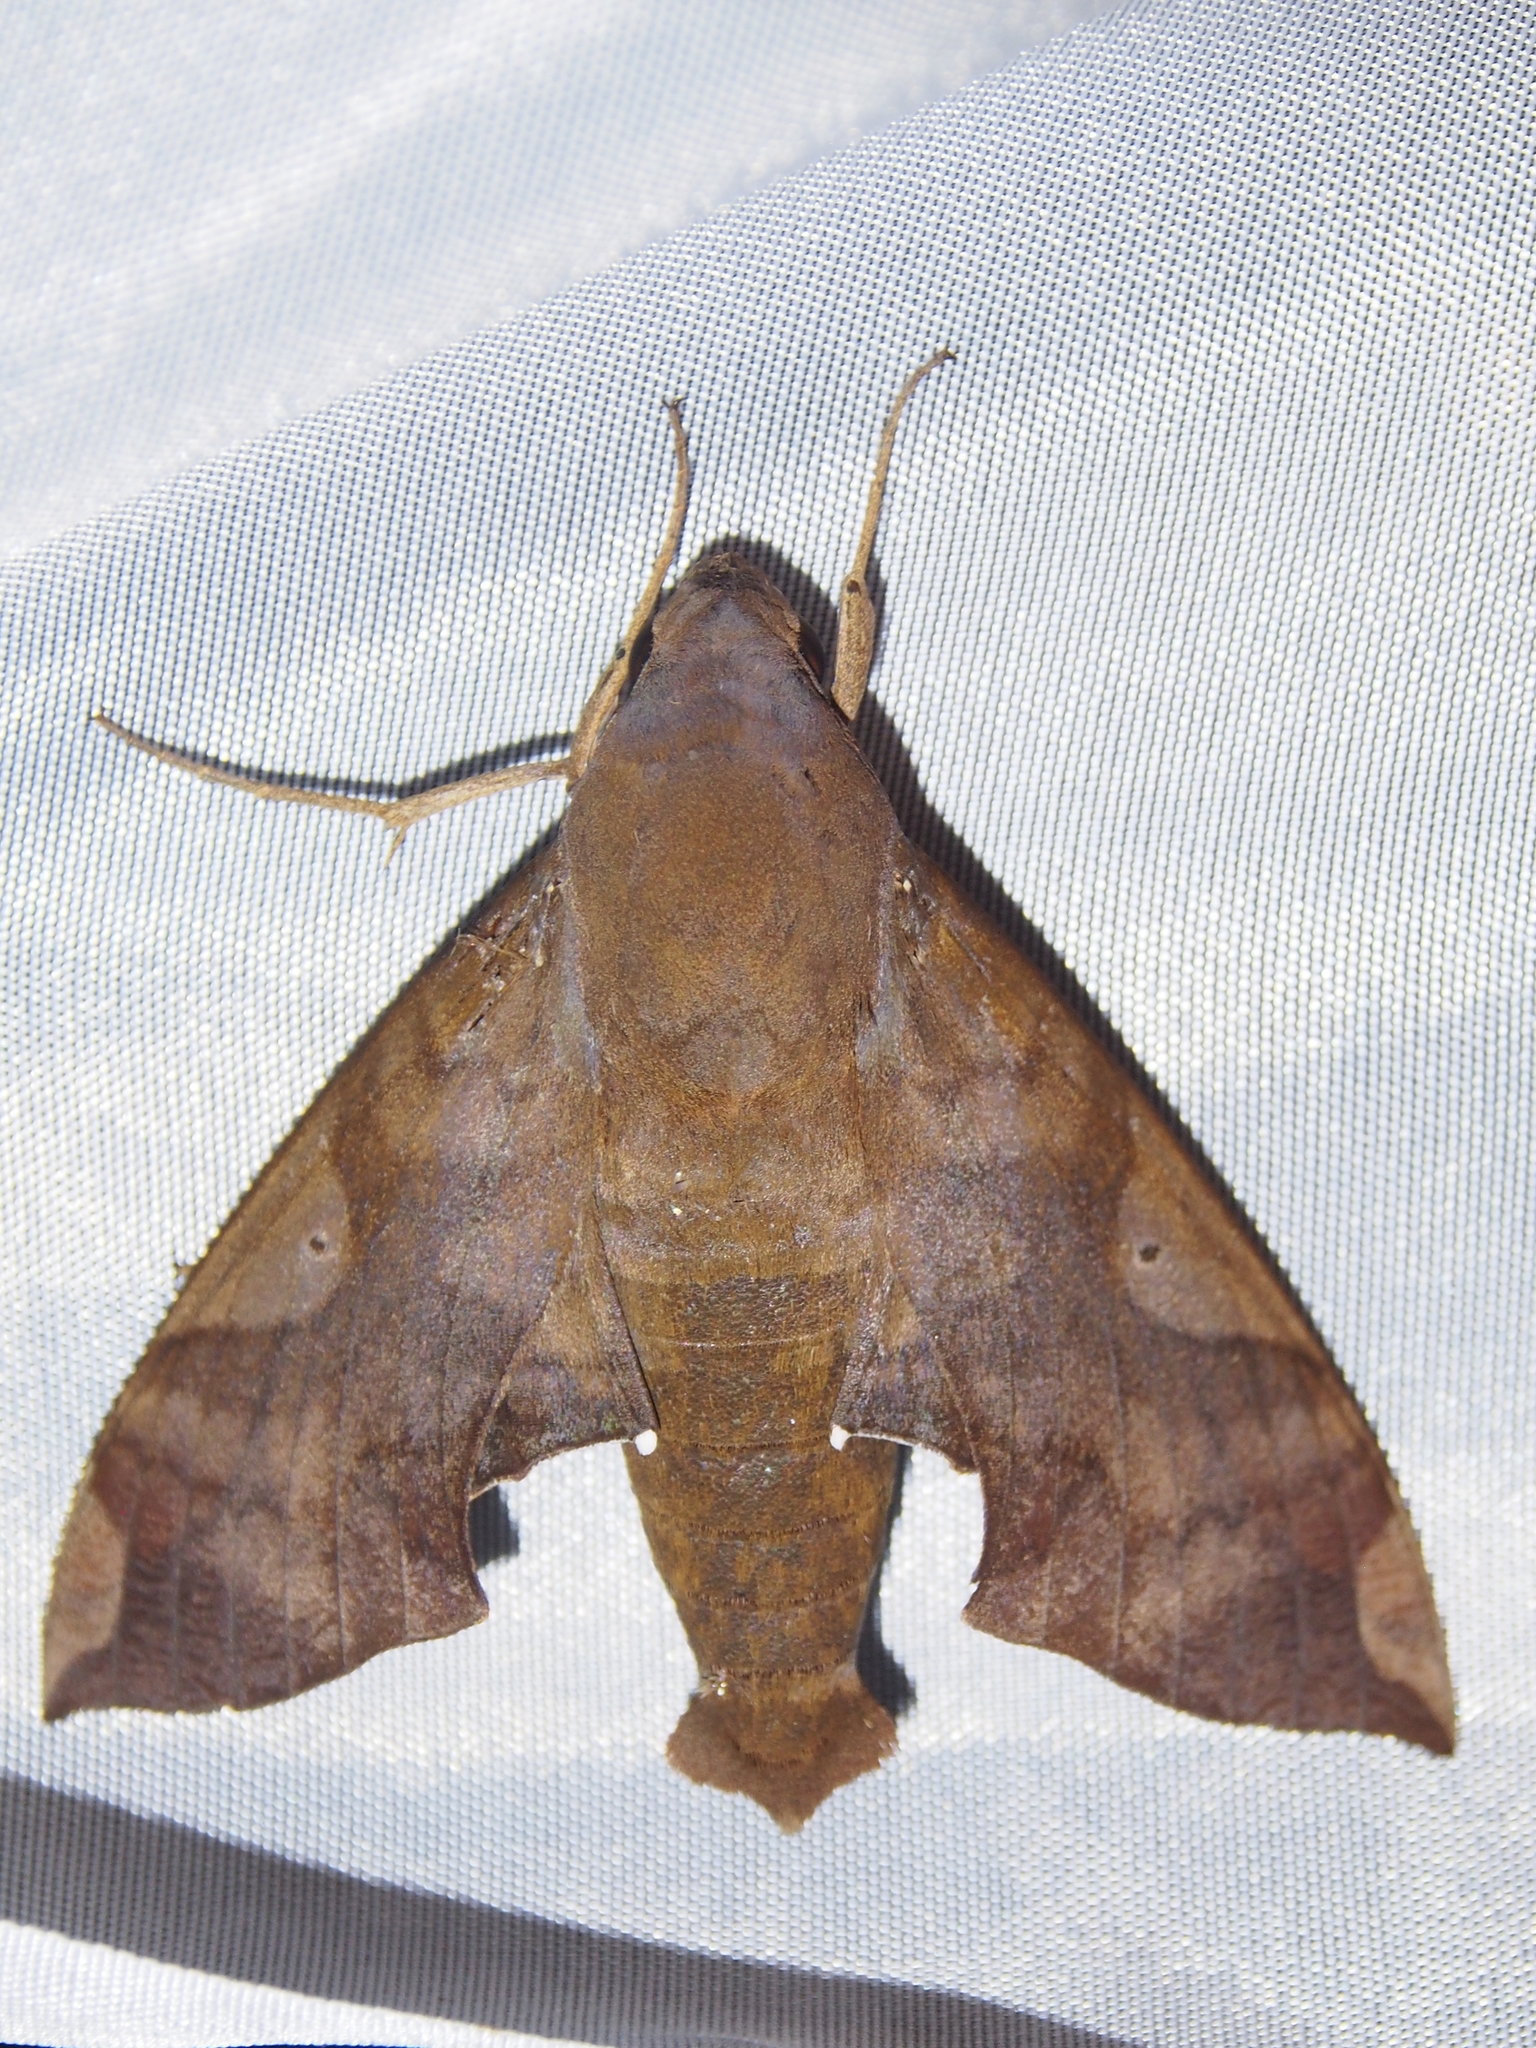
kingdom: Animalia
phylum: Arthropoda
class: Insecta
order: Lepidoptera
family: Sphingidae
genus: Pachylia
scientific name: Pachylia syces
